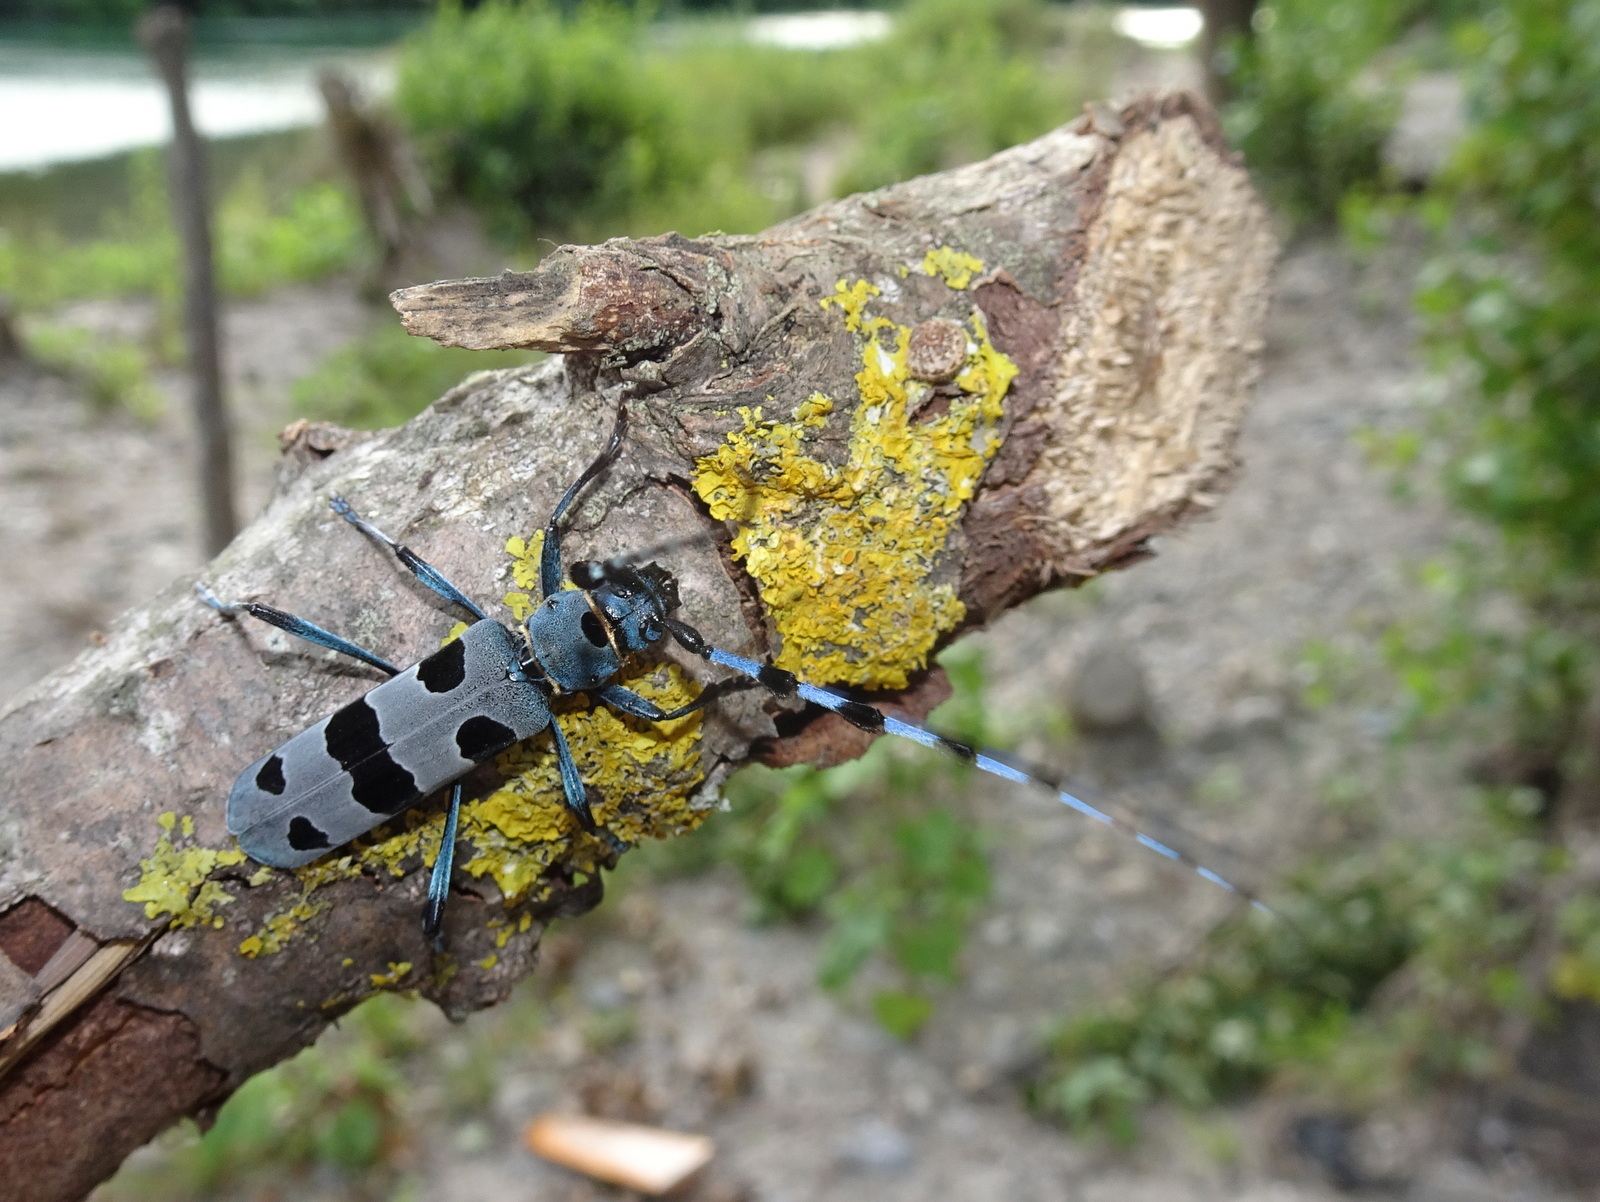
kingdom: Animalia
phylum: Arthropoda
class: Insecta
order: Coleoptera
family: Cerambycidae
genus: Rosalia
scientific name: Rosalia alpina
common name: Rosalia longicorn
